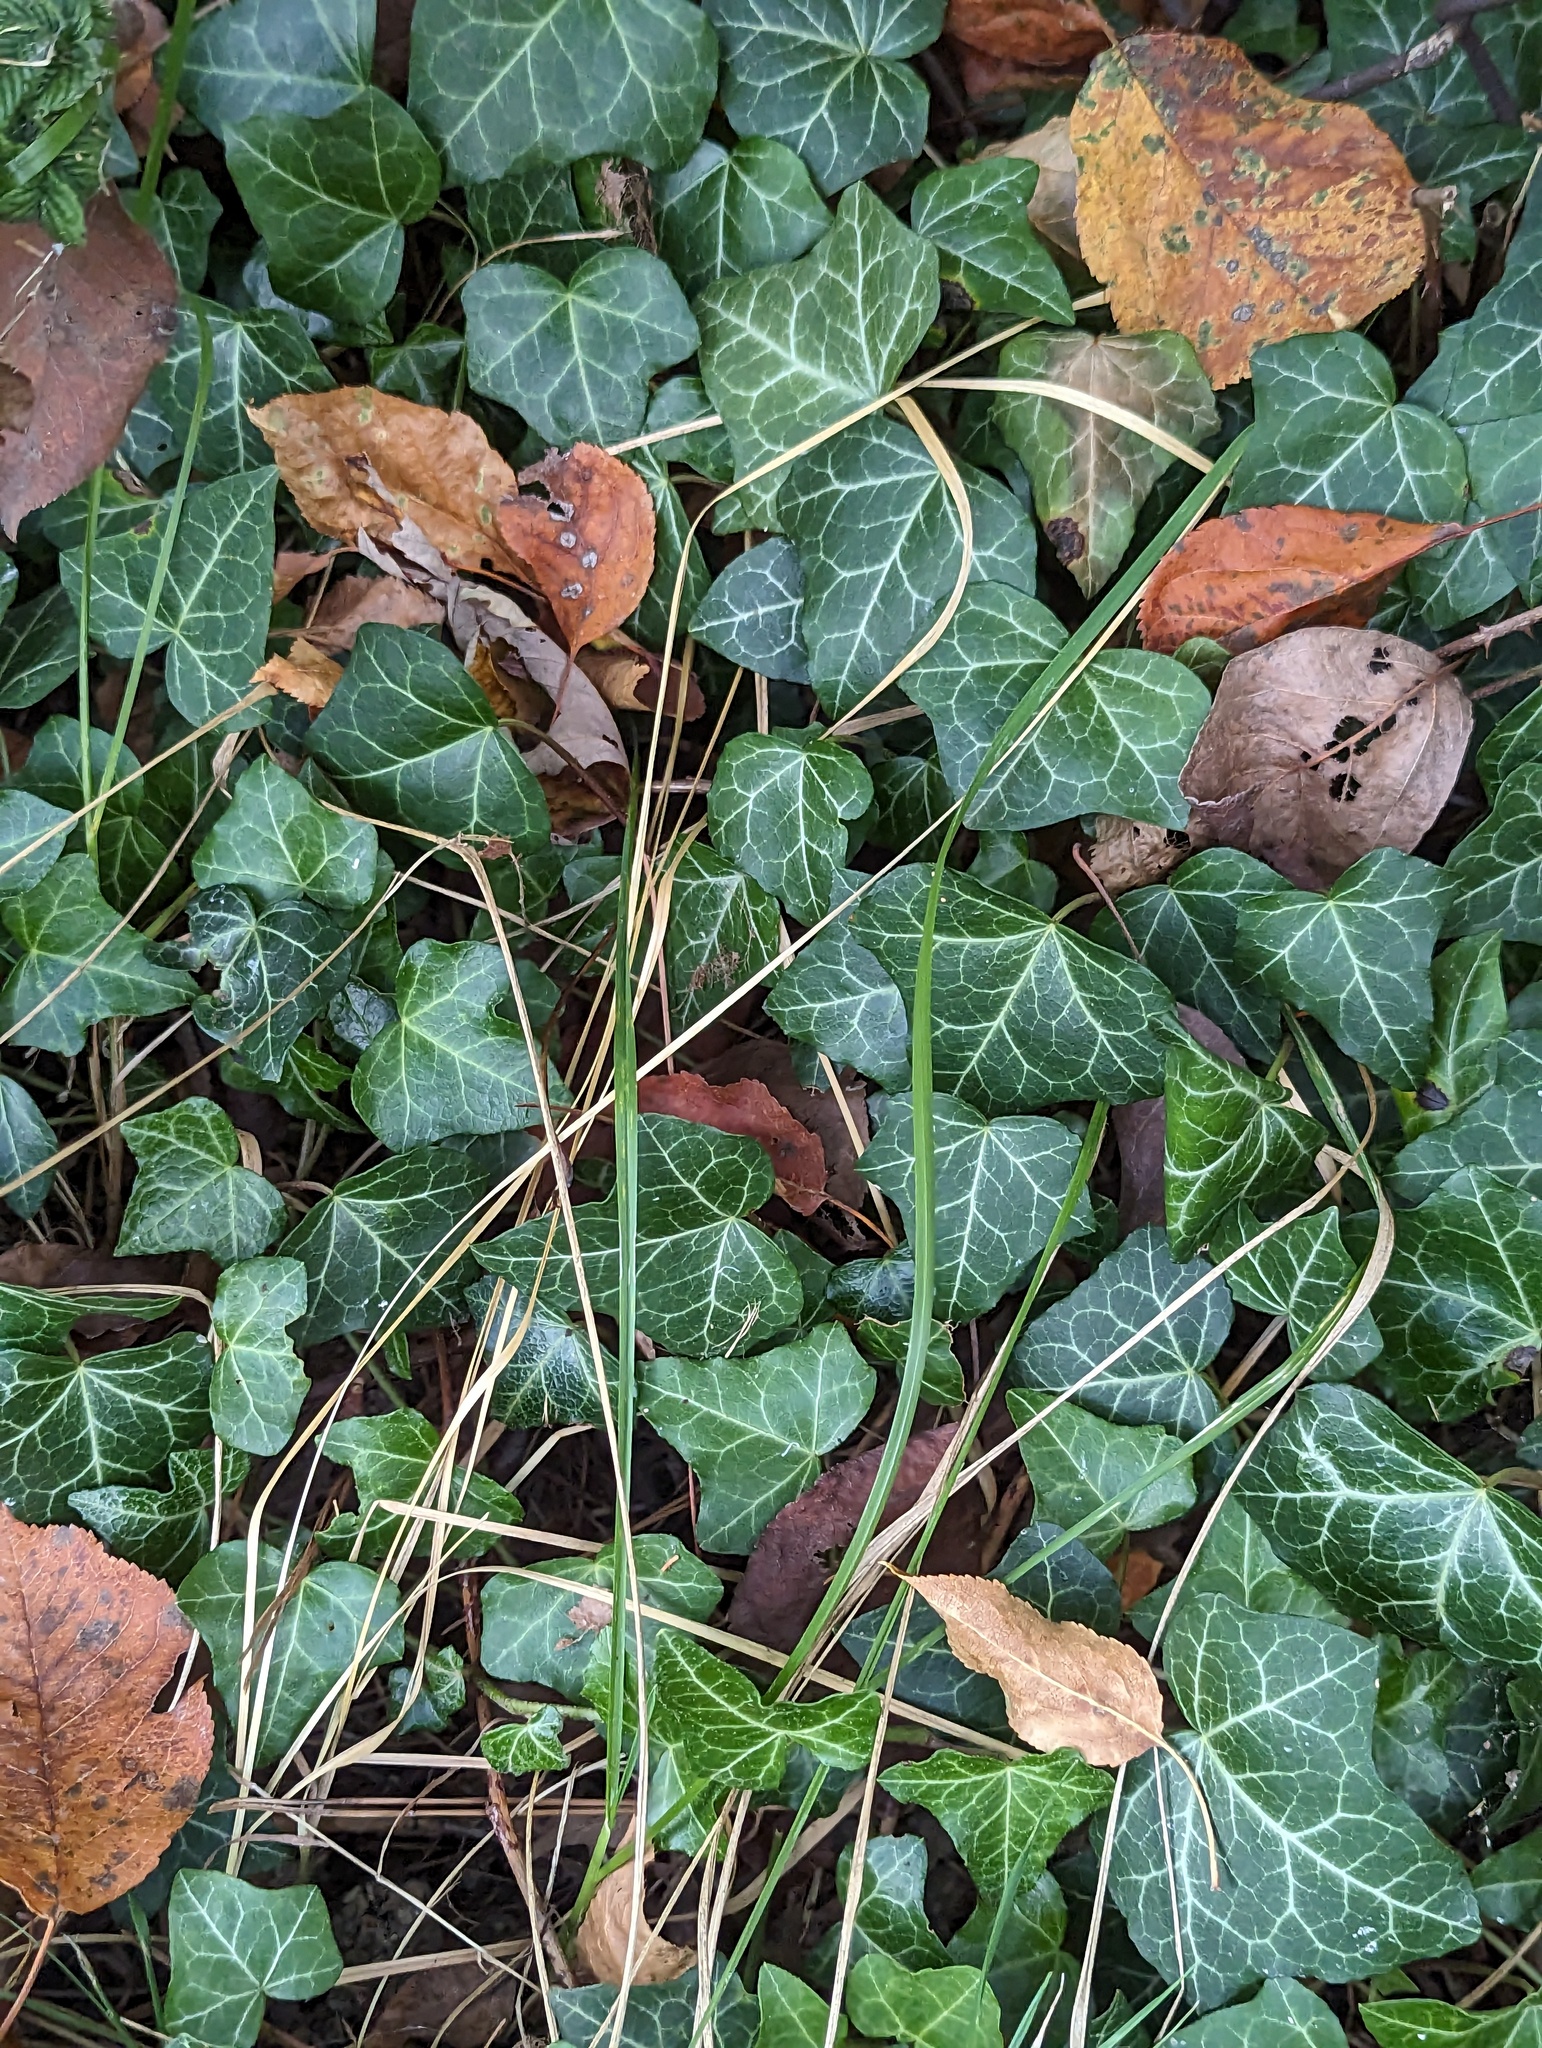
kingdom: Plantae
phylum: Tracheophyta
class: Magnoliopsida
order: Apiales
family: Araliaceae
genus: Hedera
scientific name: Hedera helix
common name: Ivy
